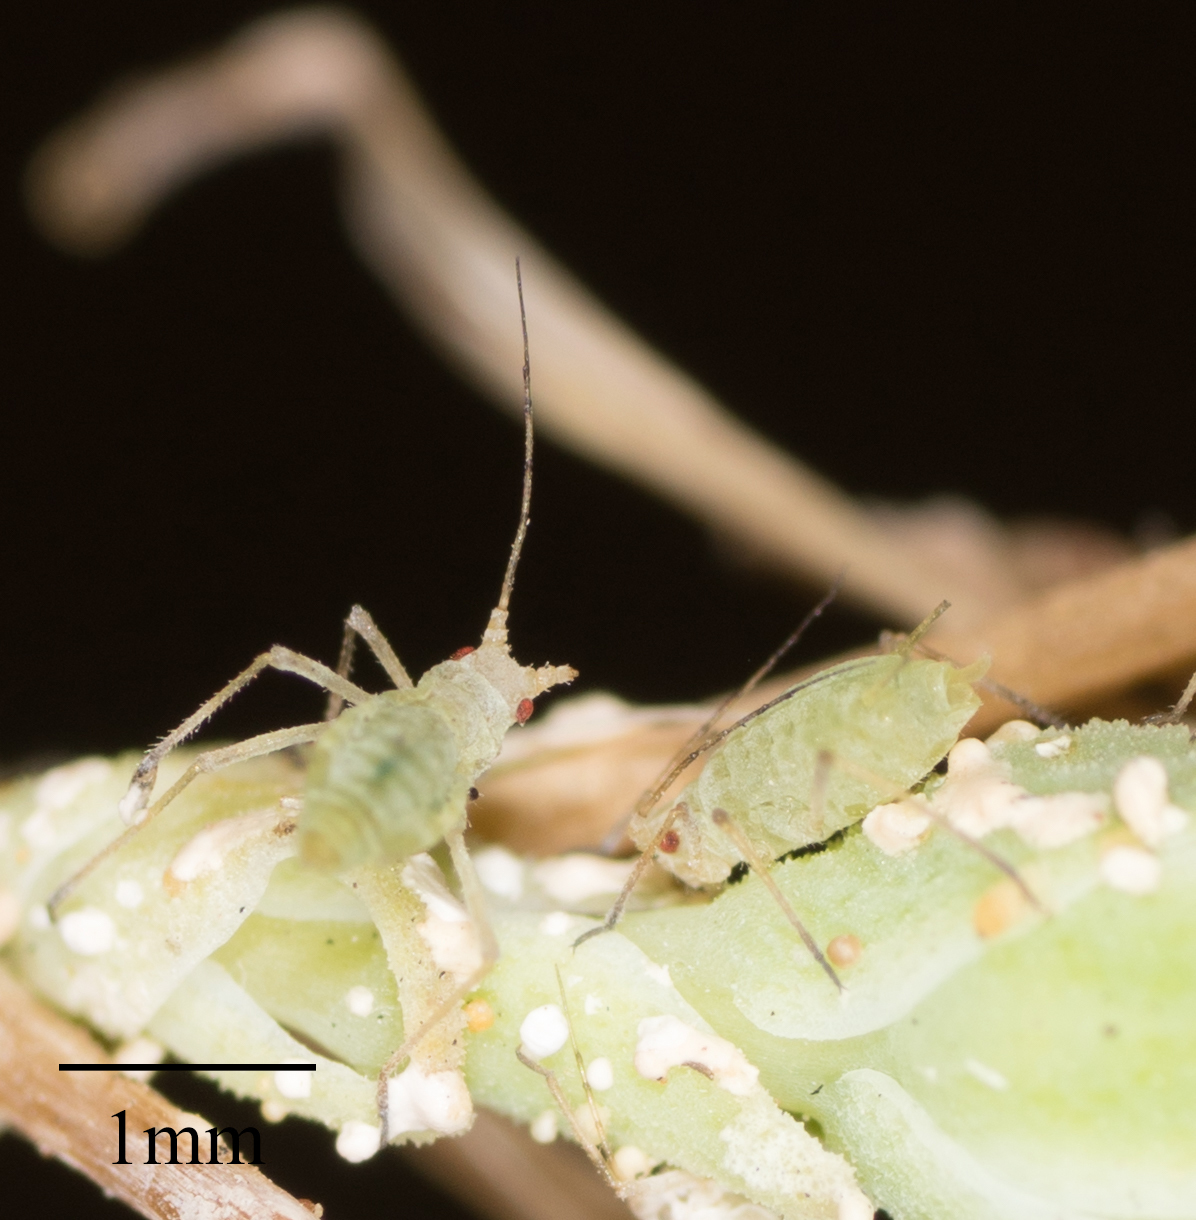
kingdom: Animalia
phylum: Arthropoda
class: Insecta
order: Hemiptera
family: Aphididae
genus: Acyrthosiphon
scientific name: Acyrthosiphon lactucae
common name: Aphid
